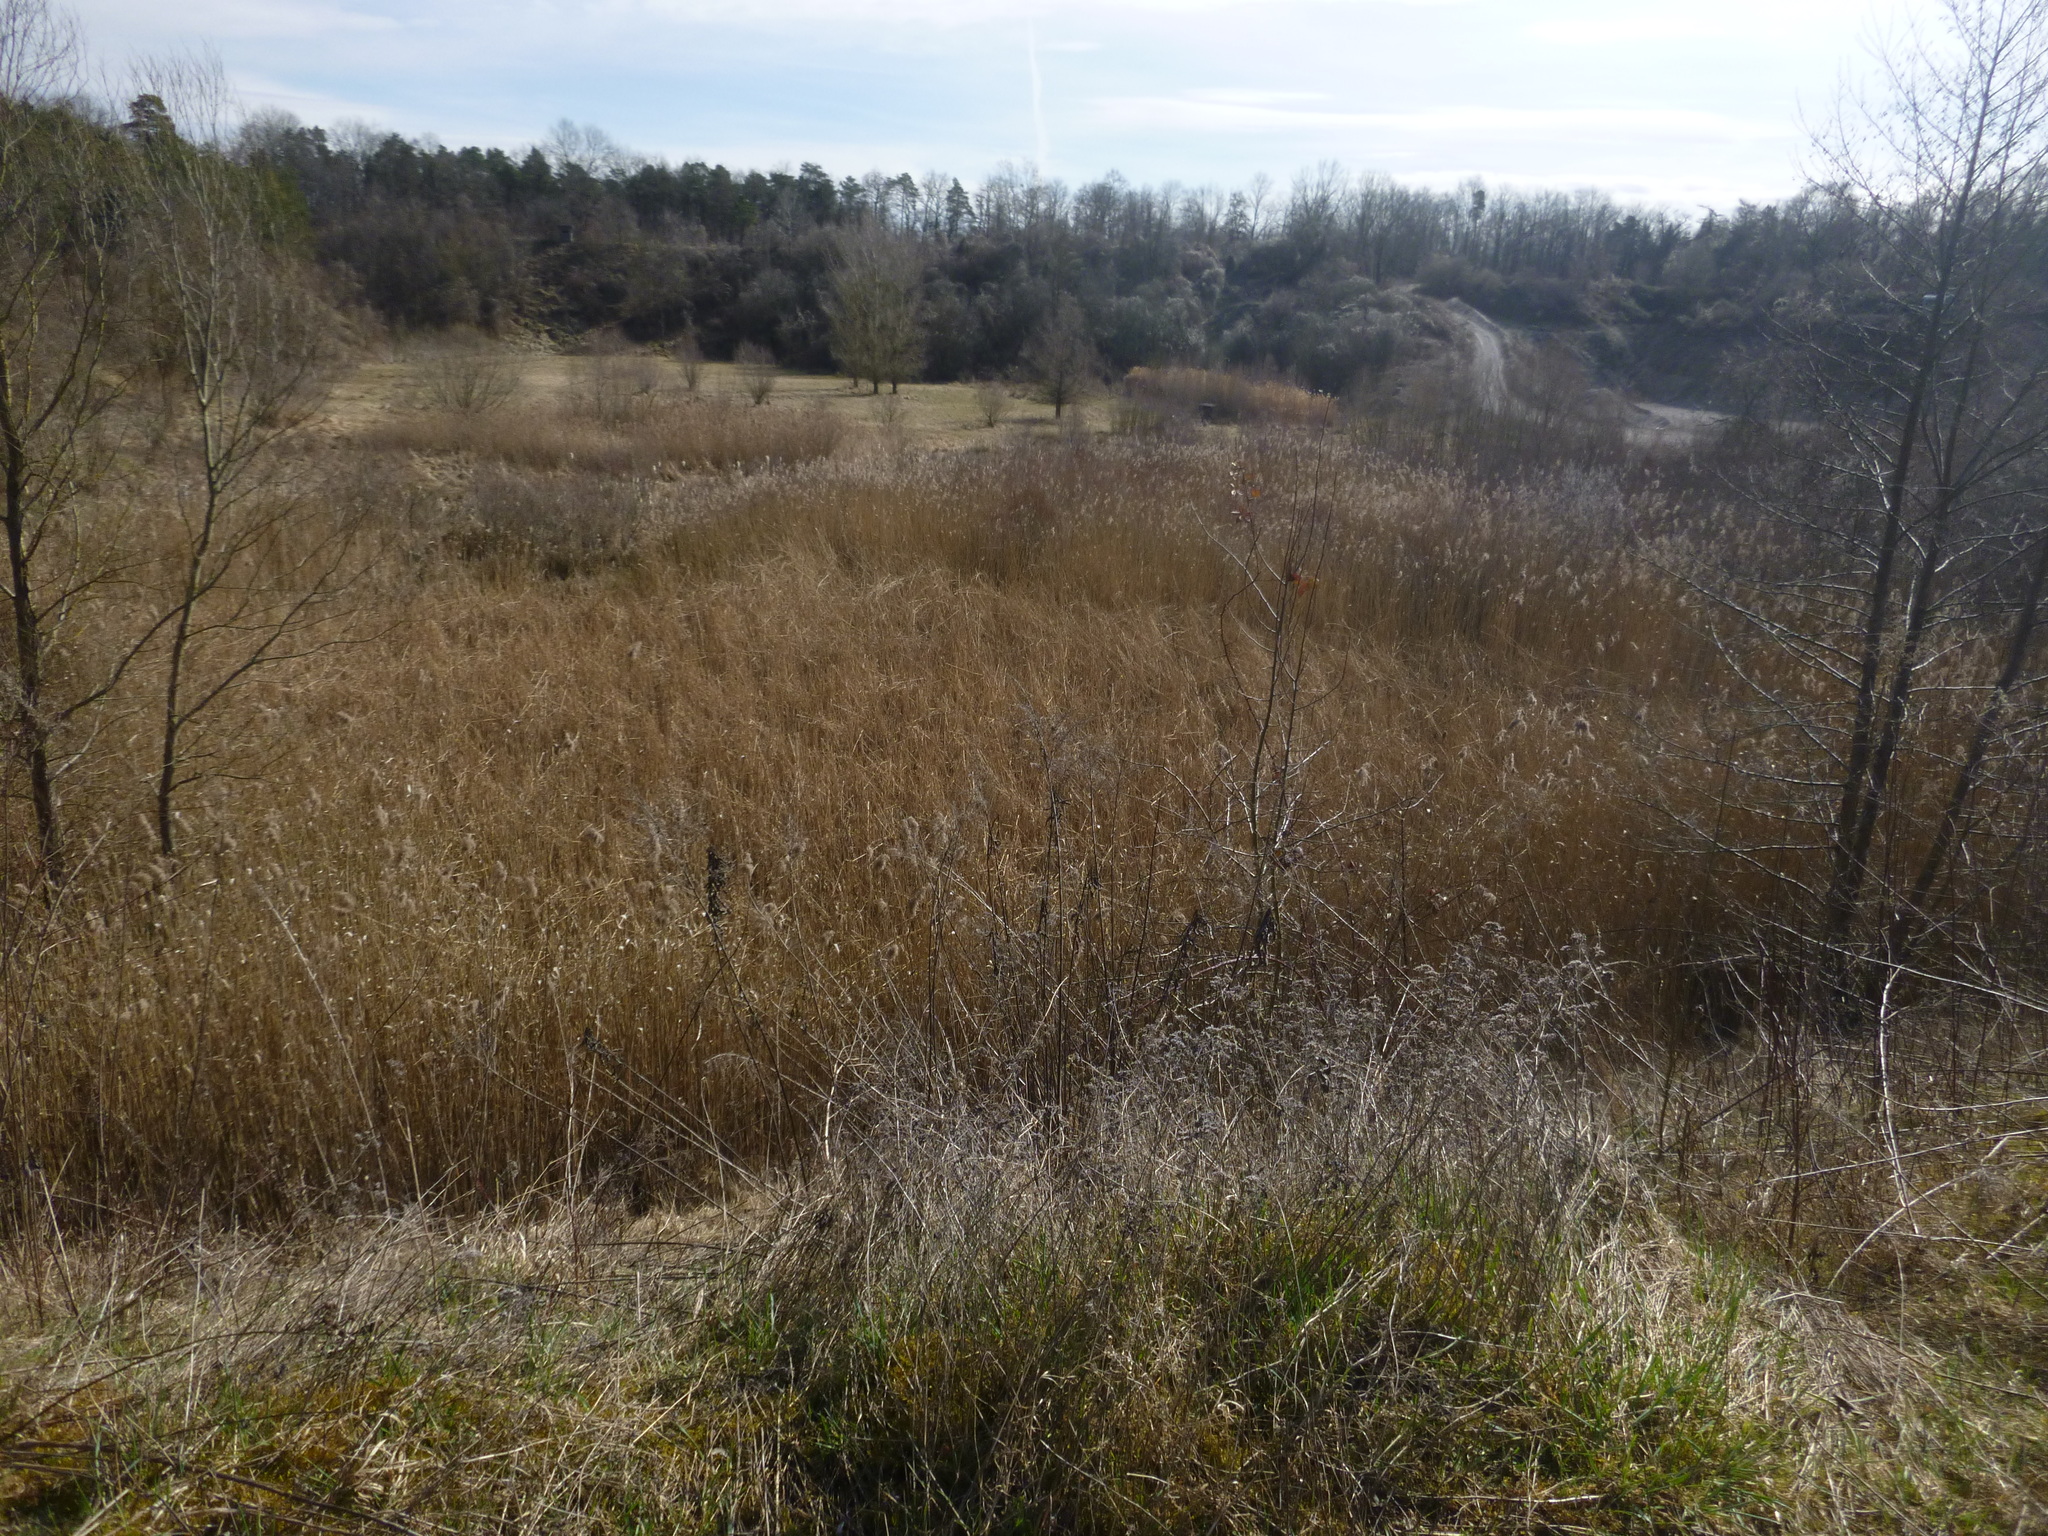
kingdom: Plantae
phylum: Tracheophyta
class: Liliopsida
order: Poales
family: Poaceae
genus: Phragmites
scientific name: Phragmites australis
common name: Common reed
